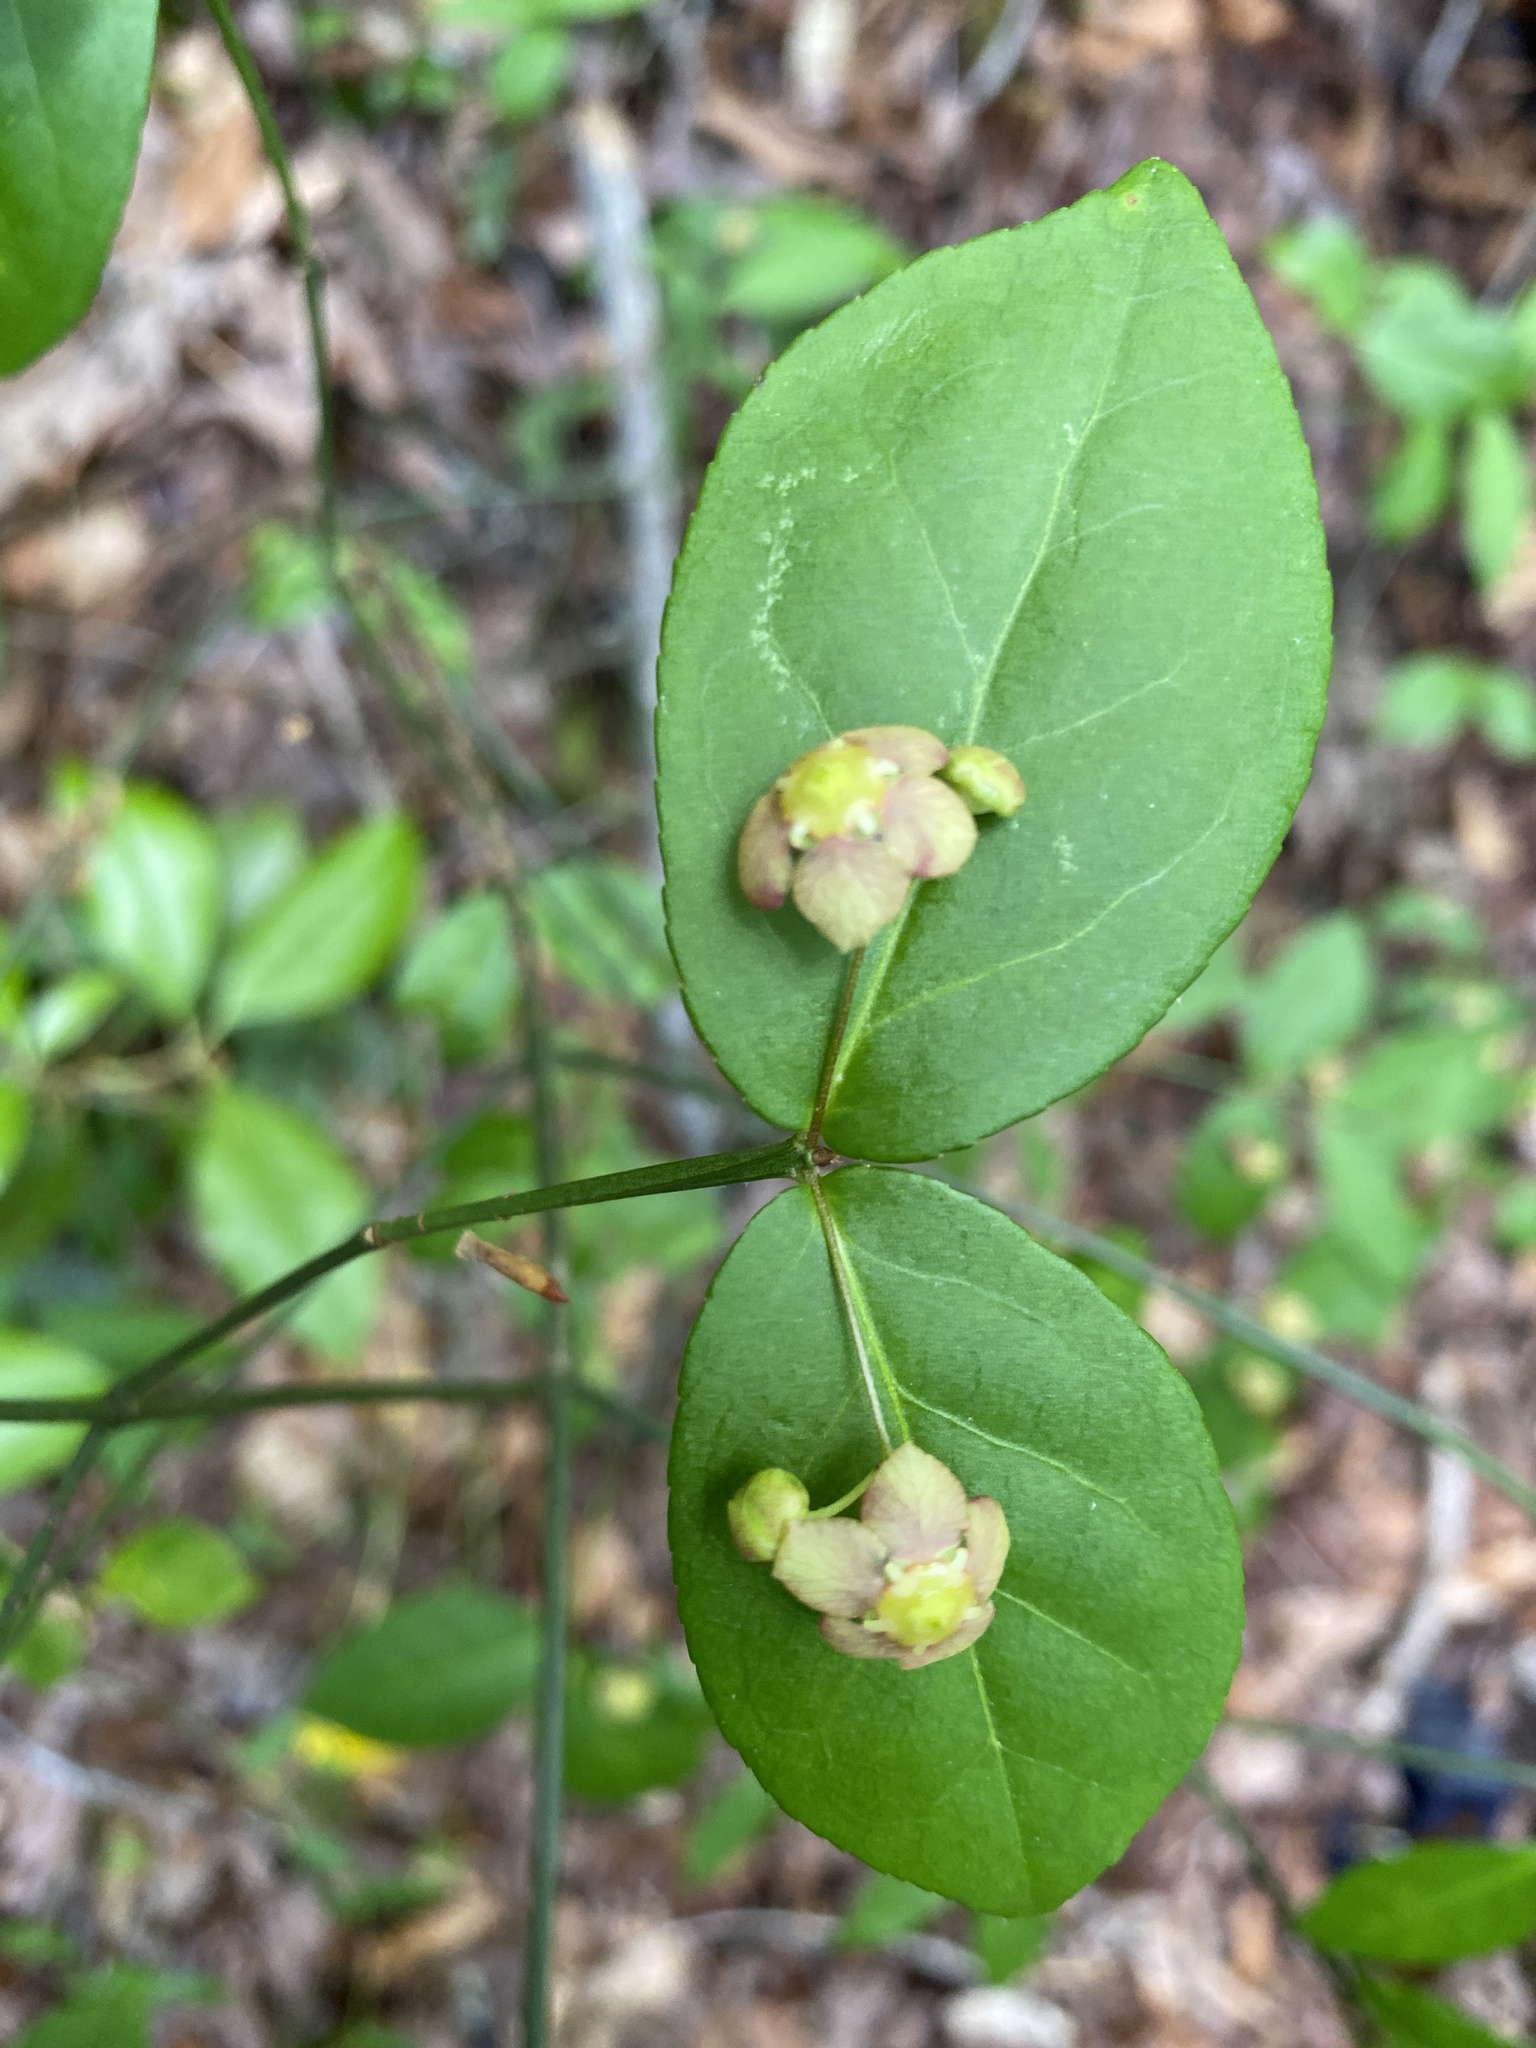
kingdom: Plantae
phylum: Tracheophyta
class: Magnoliopsida
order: Celastrales
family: Celastraceae
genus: Euonymus
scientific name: Euonymus americanus
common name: Bursting-heart
